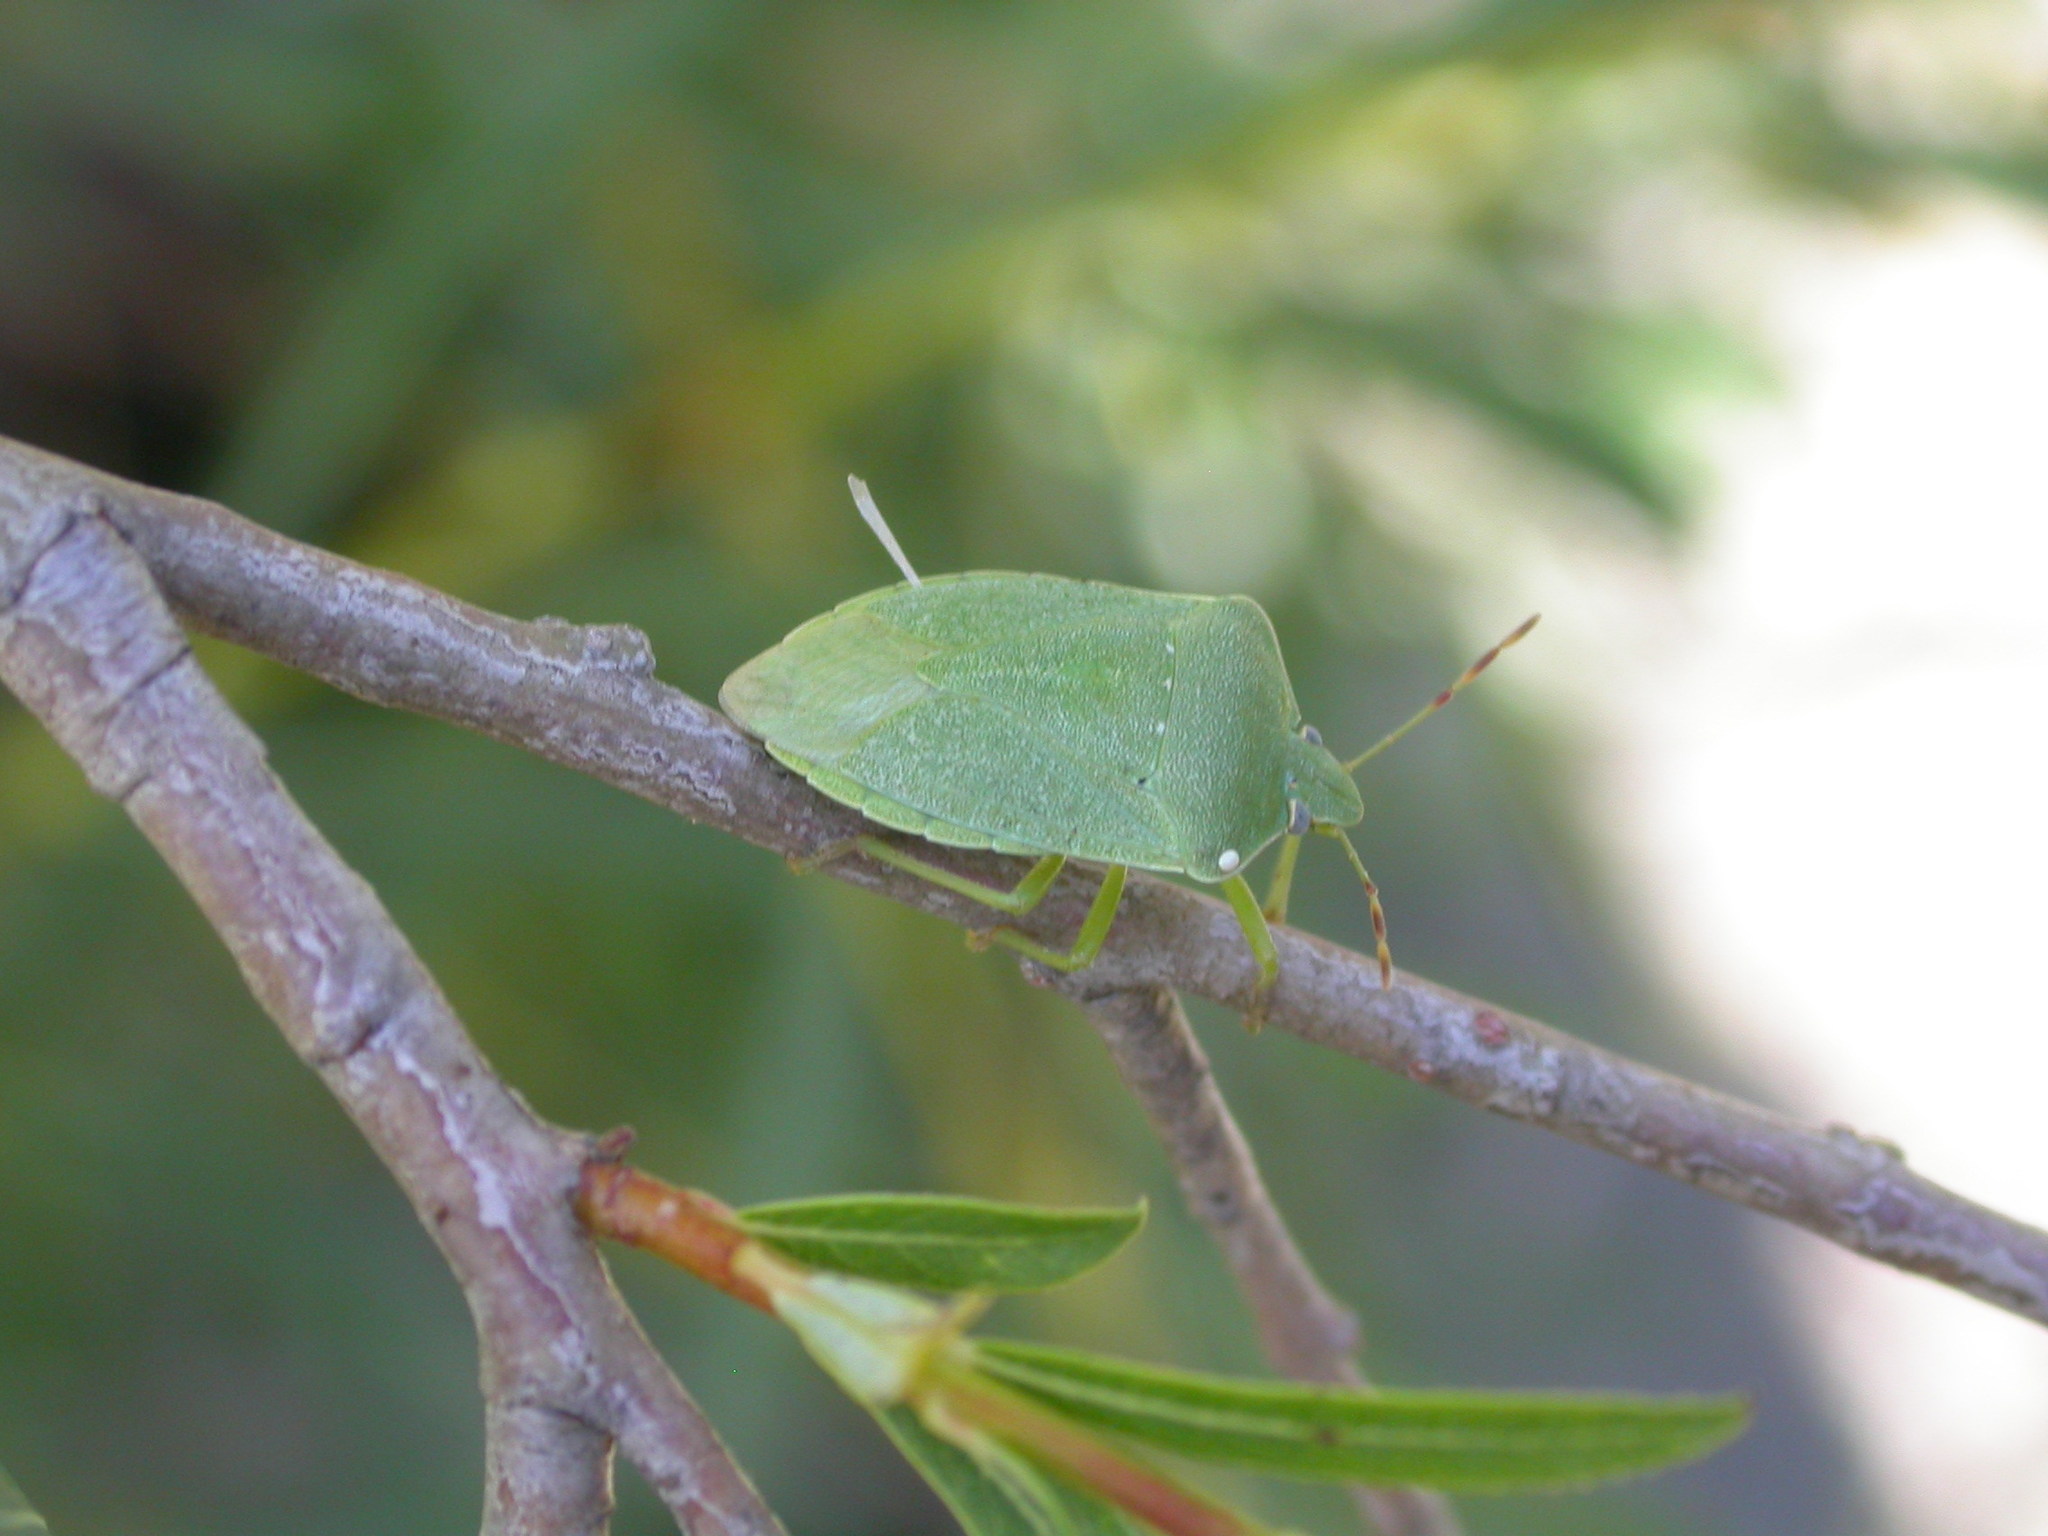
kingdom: Animalia
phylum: Arthropoda
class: Insecta
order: Hemiptera
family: Pentatomidae
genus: Nezara
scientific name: Nezara viridula
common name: Southern green stink bug
